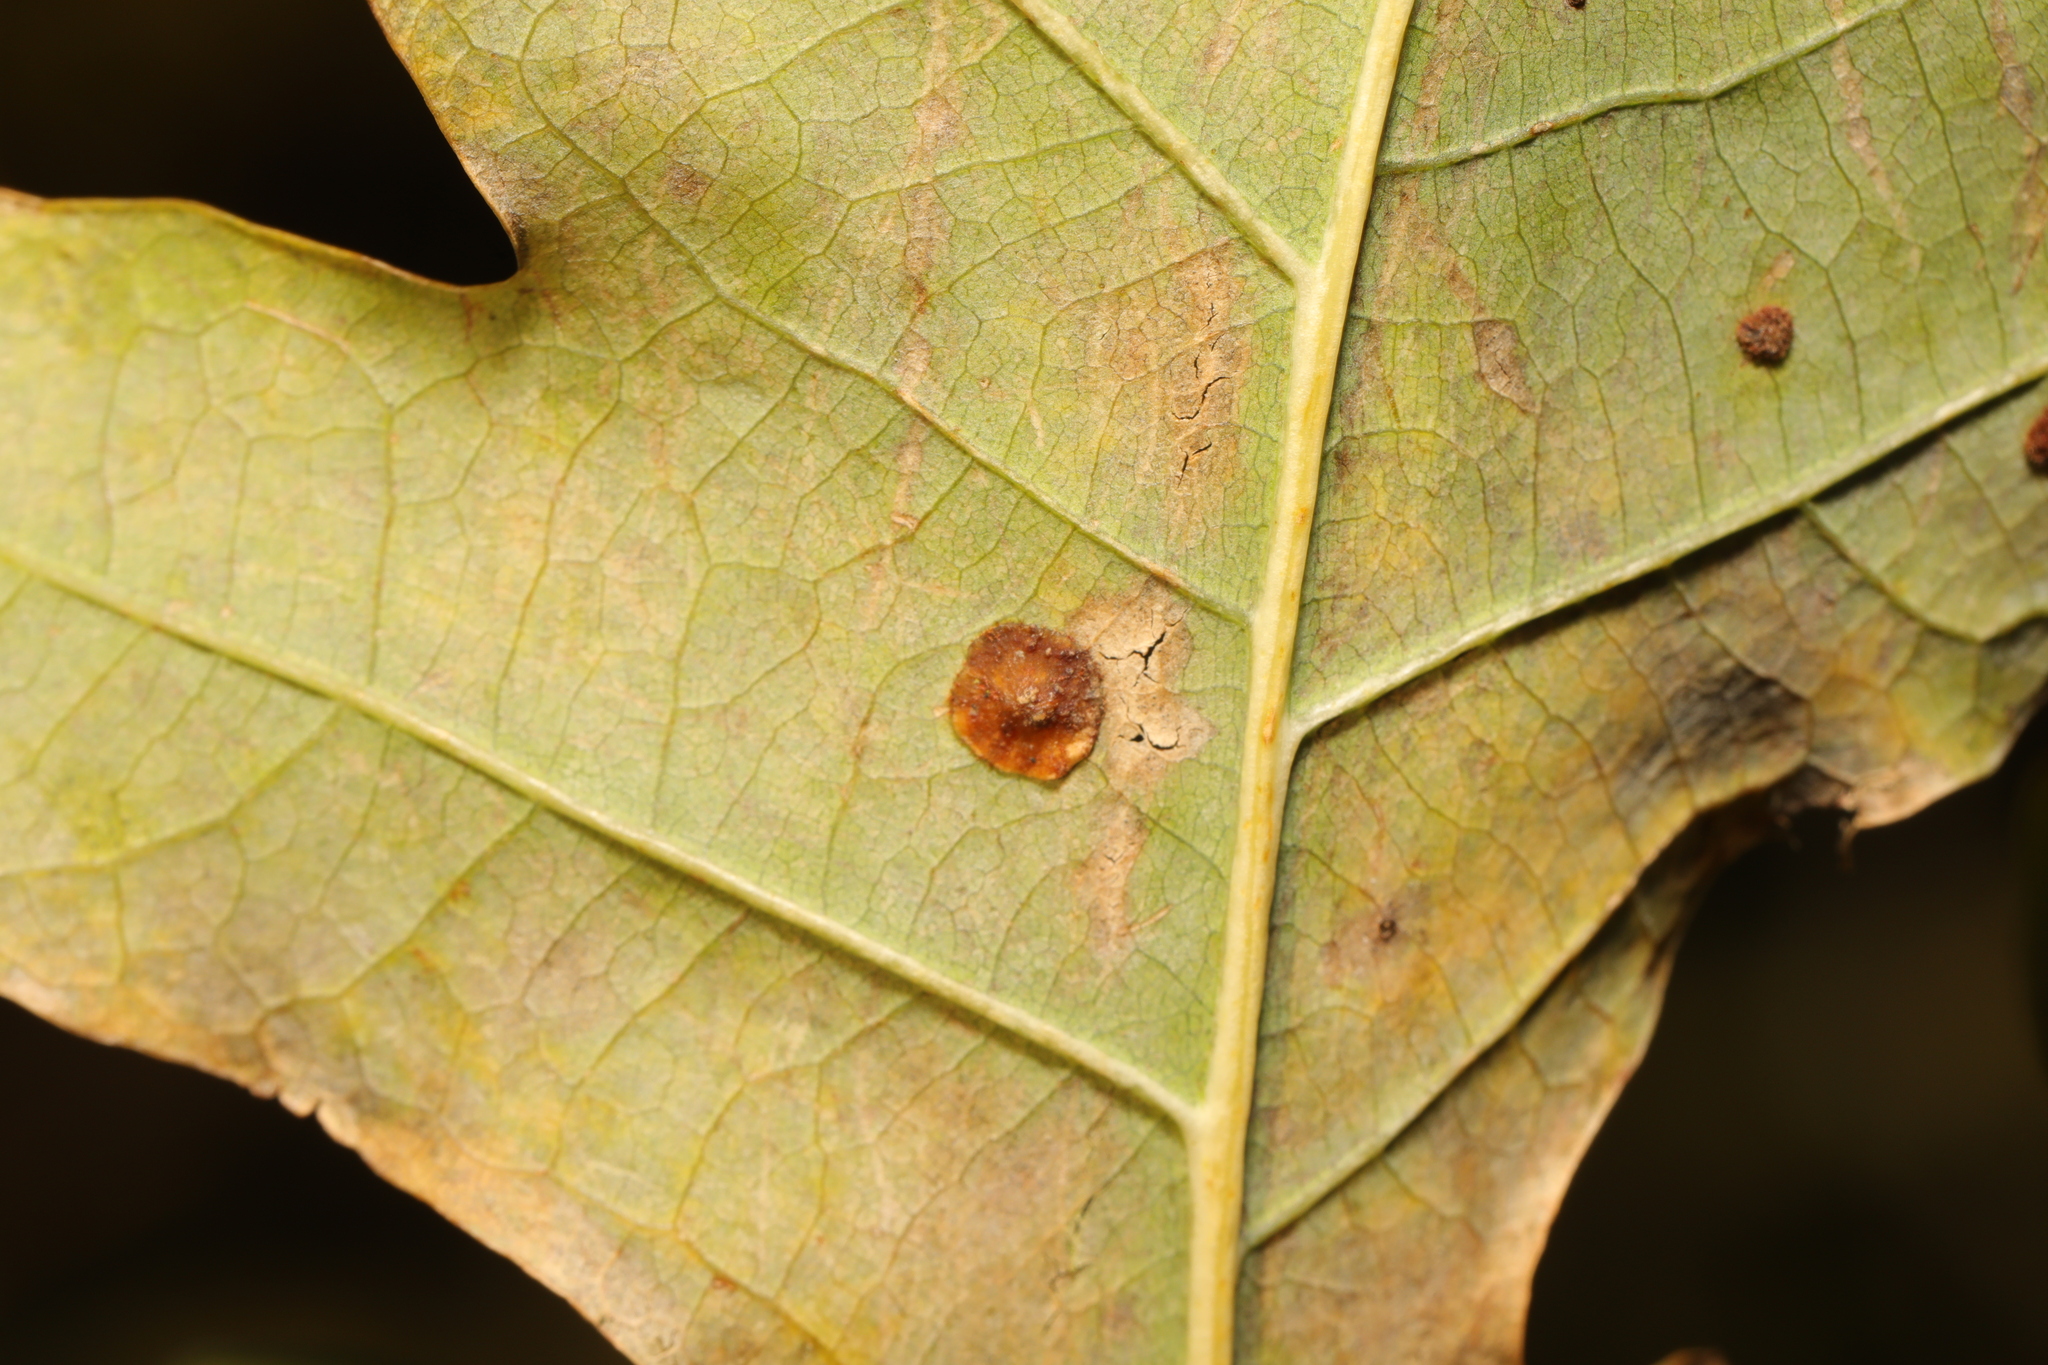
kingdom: Animalia
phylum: Arthropoda
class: Insecta
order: Hymenoptera
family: Cynipidae
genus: Neuroterus
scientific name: Neuroterus quercusbaccarum
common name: Common spangle gall
